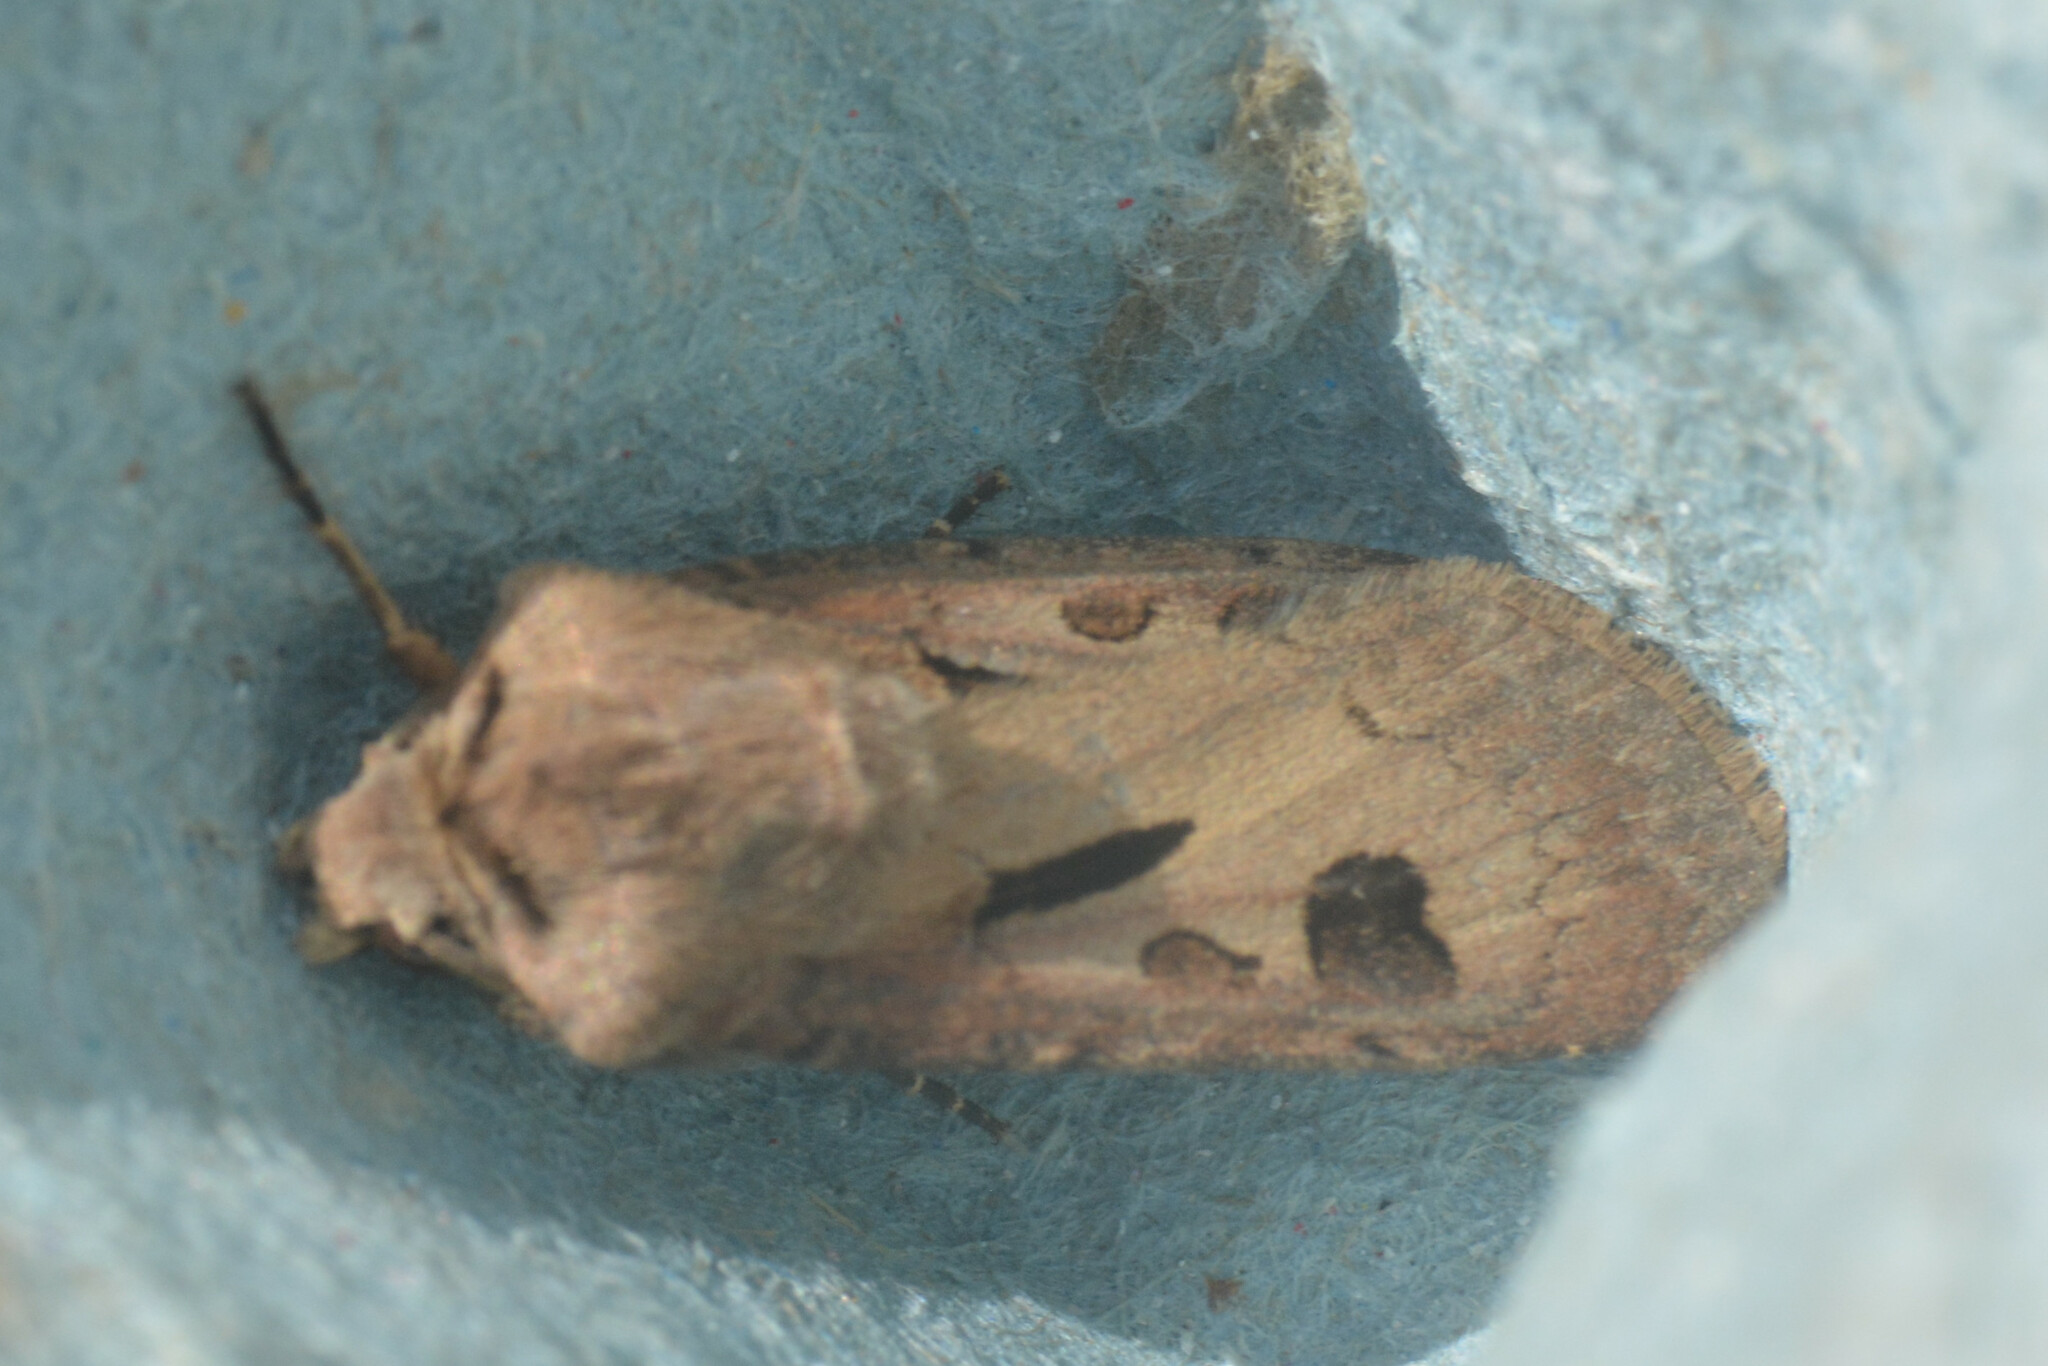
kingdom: Animalia
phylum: Arthropoda
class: Insecta
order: Lepidoptera
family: Noctuidae
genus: Agrotis
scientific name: Agrotis exclamationis
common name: Heart and dart
